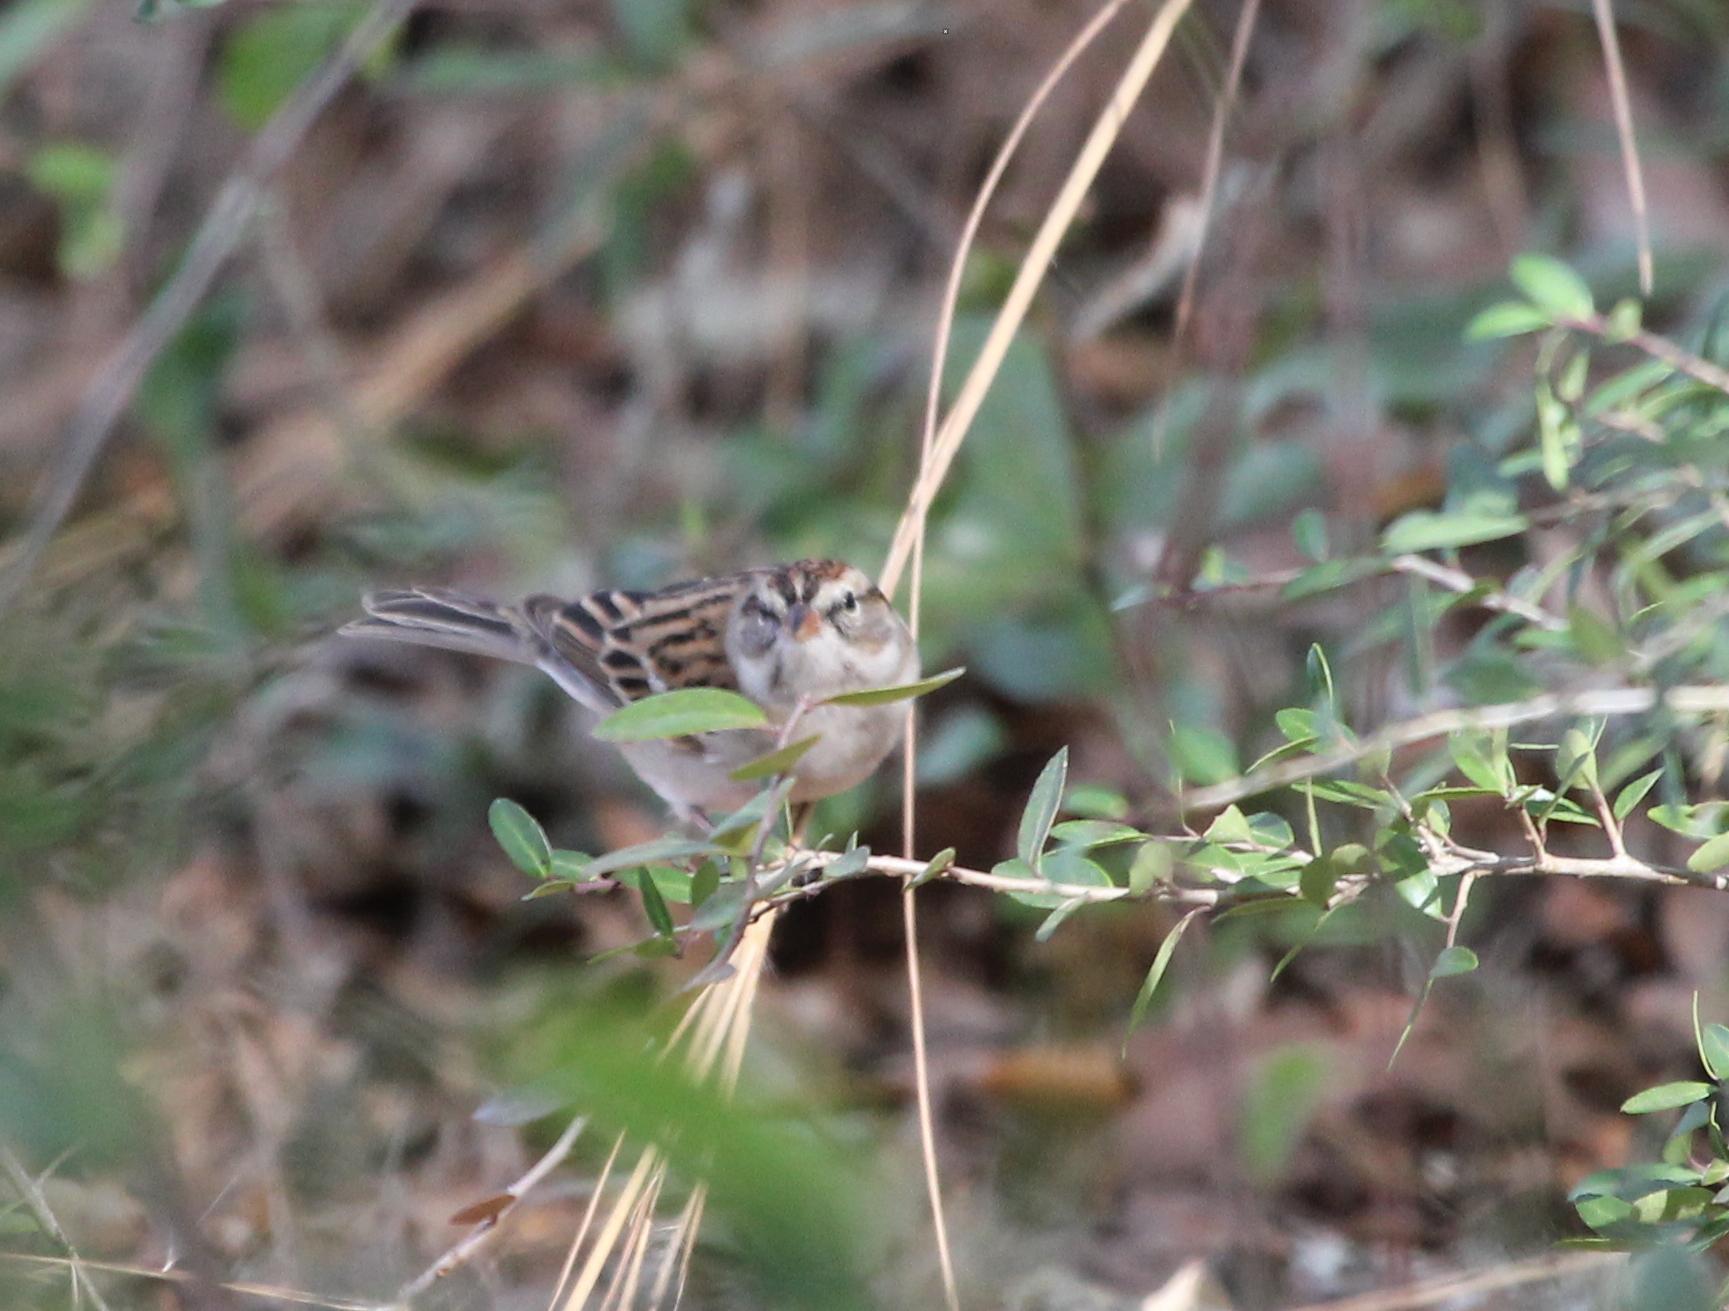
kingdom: Animalia
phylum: Chordata
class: Aves
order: Passeriformes
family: Passerellidae
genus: Spizella
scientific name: Spizella passerina
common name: Chipping sparrow
